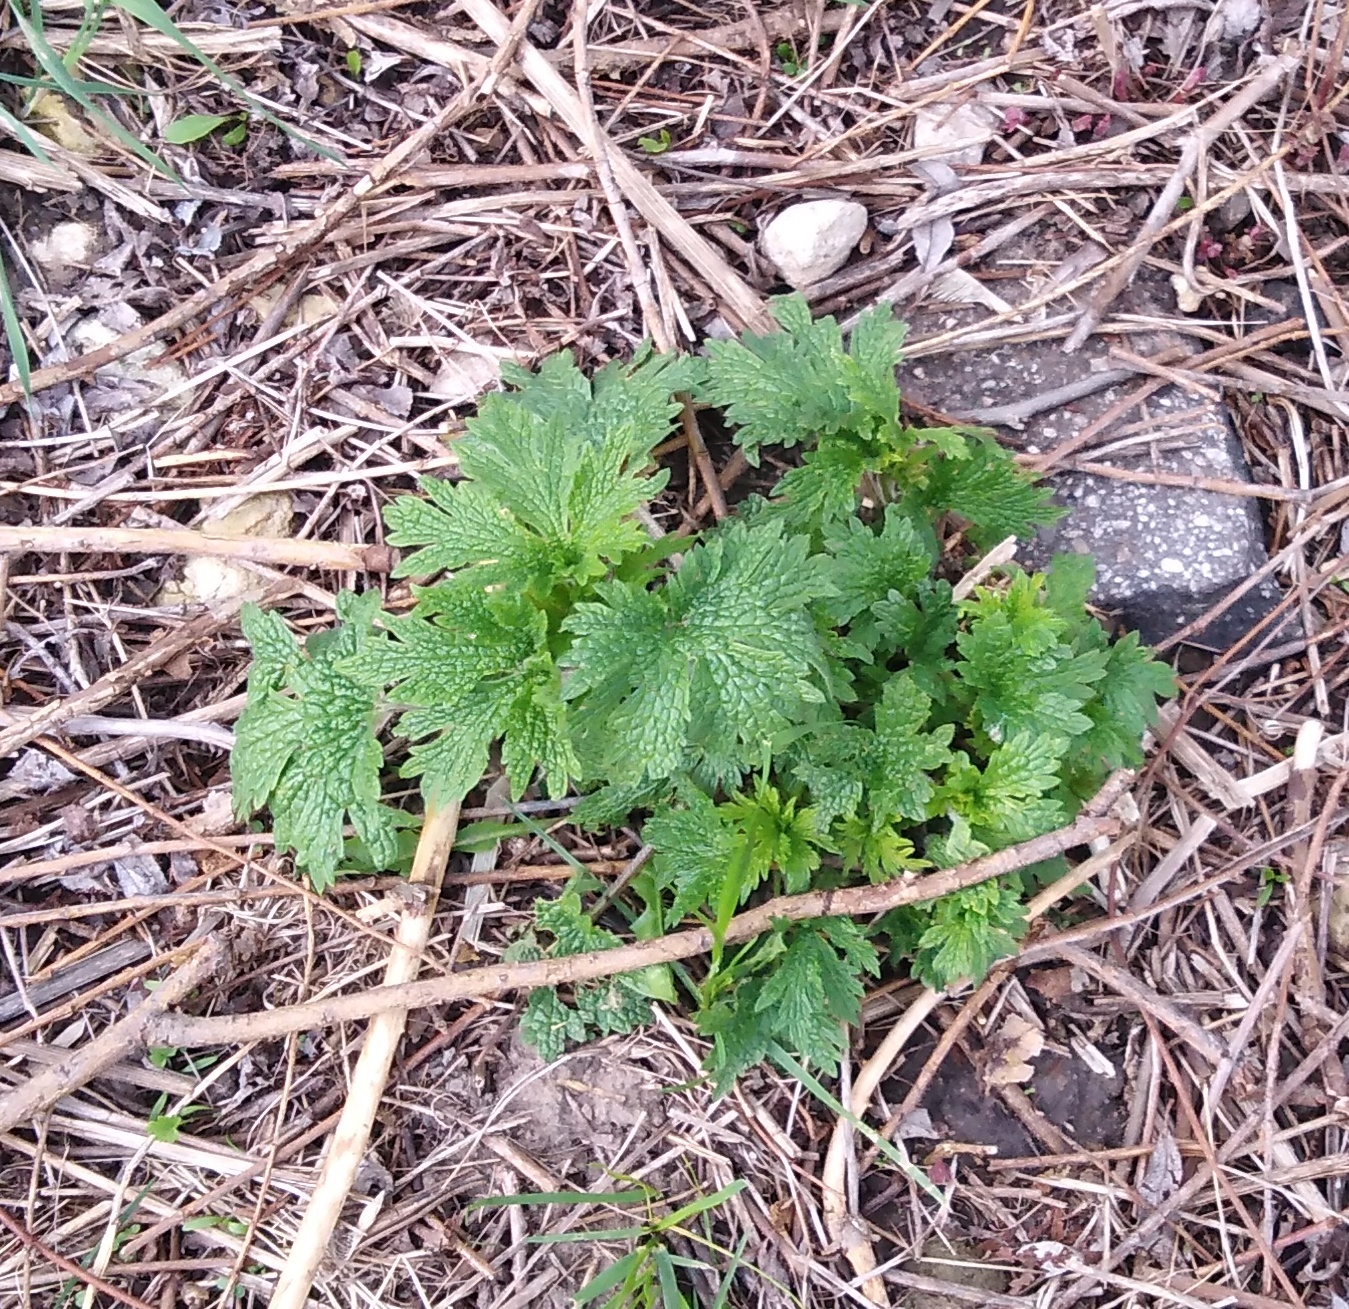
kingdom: Plantae
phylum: Tracheophyta
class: Magnoliopsida
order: Lamiales
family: Lamiaceae
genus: Leonurus
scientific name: Leonurus quinquelobatus
